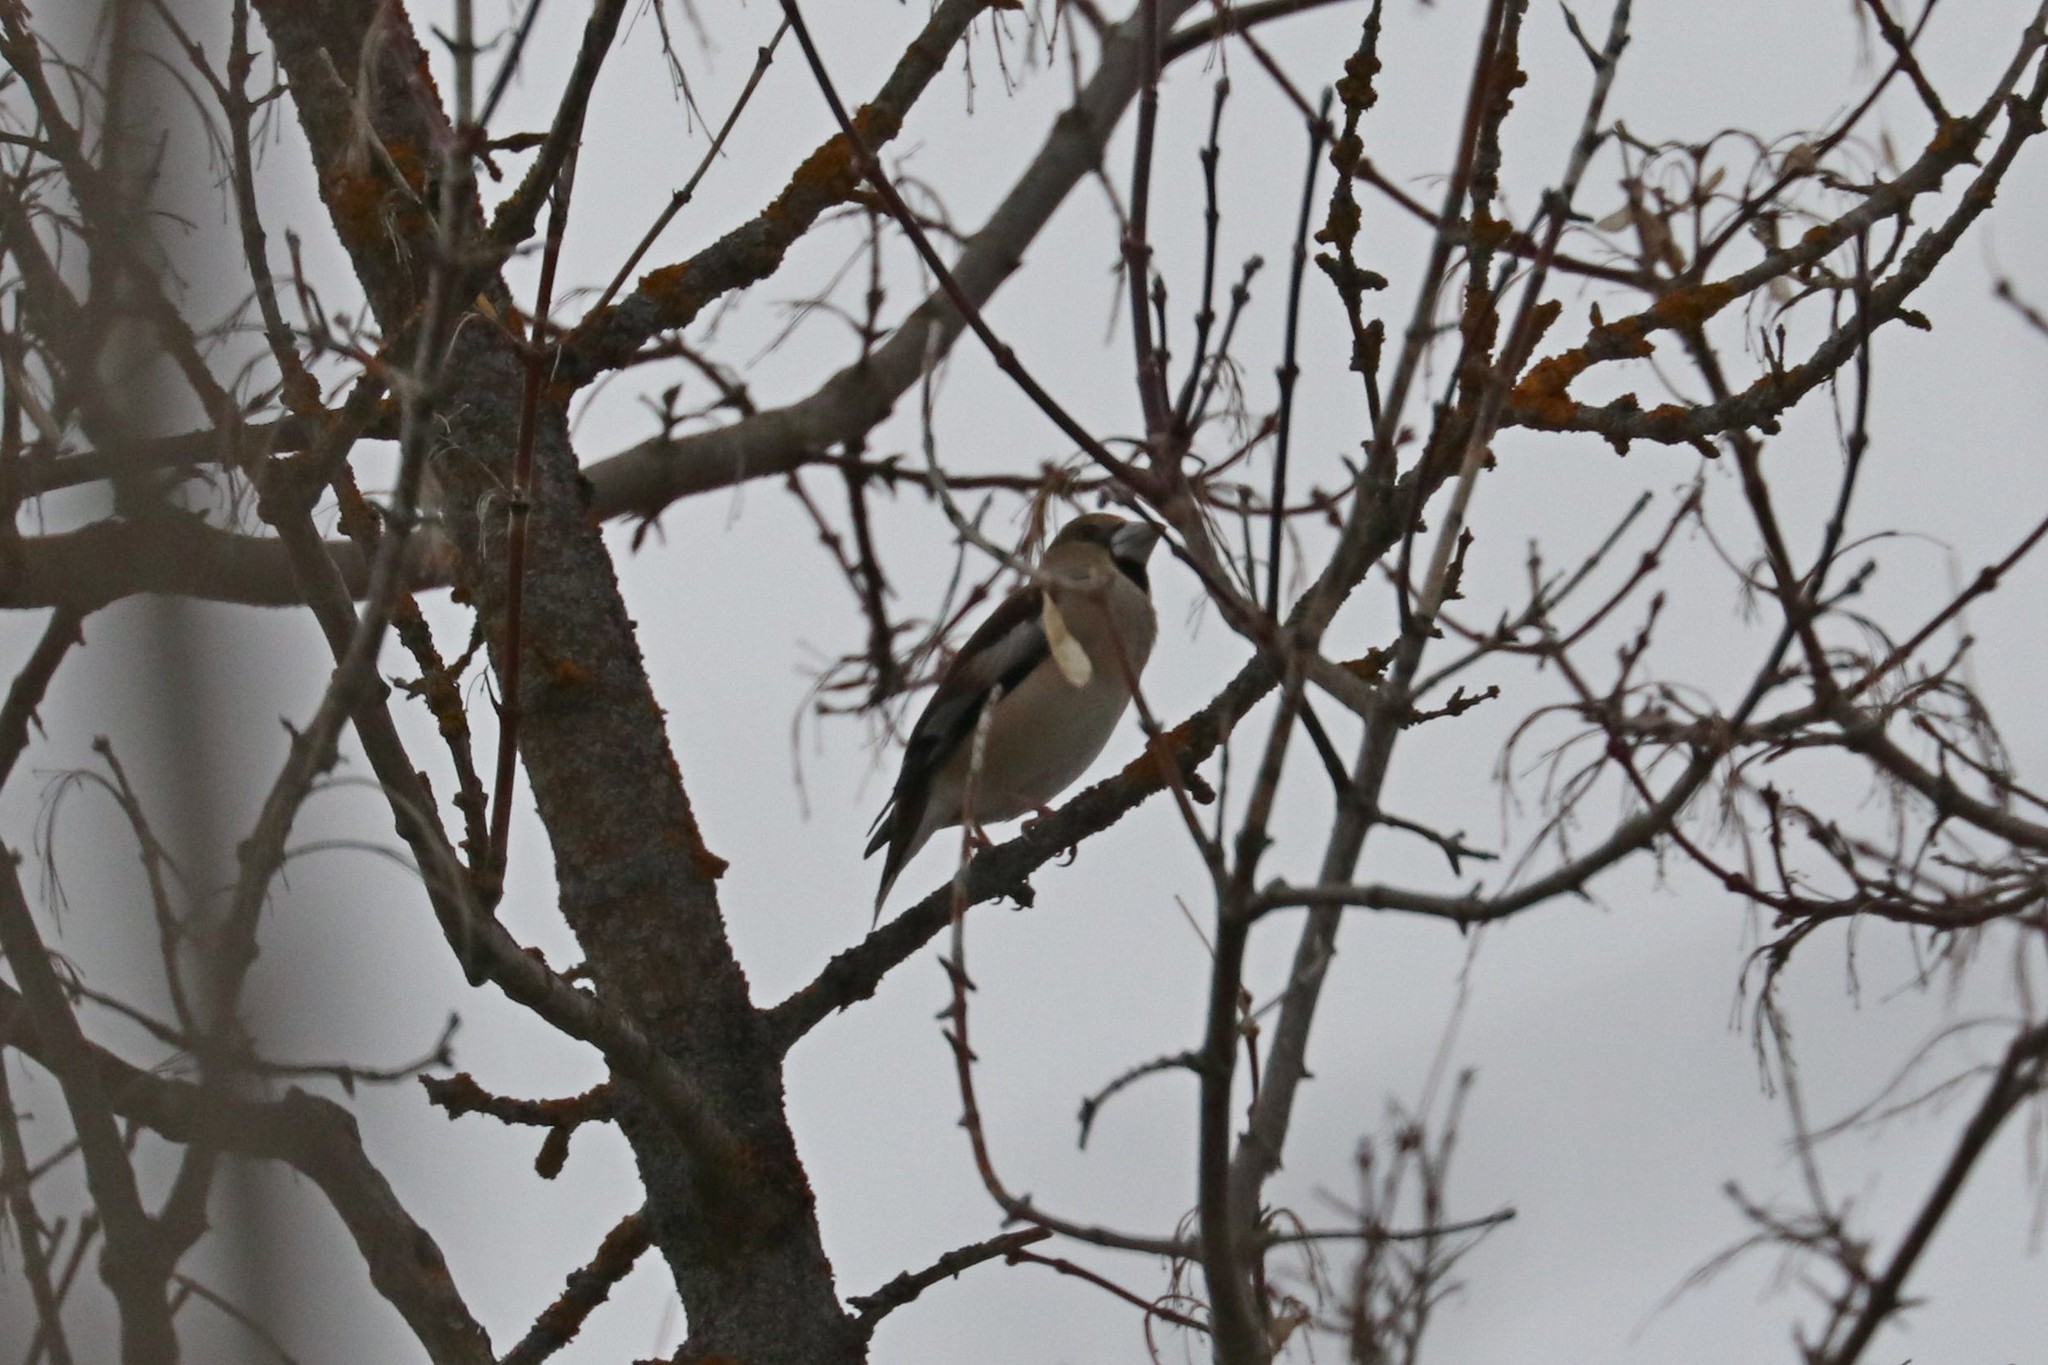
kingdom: Animalia
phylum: Chordata
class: Aves
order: Passeriformes
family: Fringillidae
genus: Coccothraustes
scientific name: Coccothraustes coccothraustes
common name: Hawfinch
